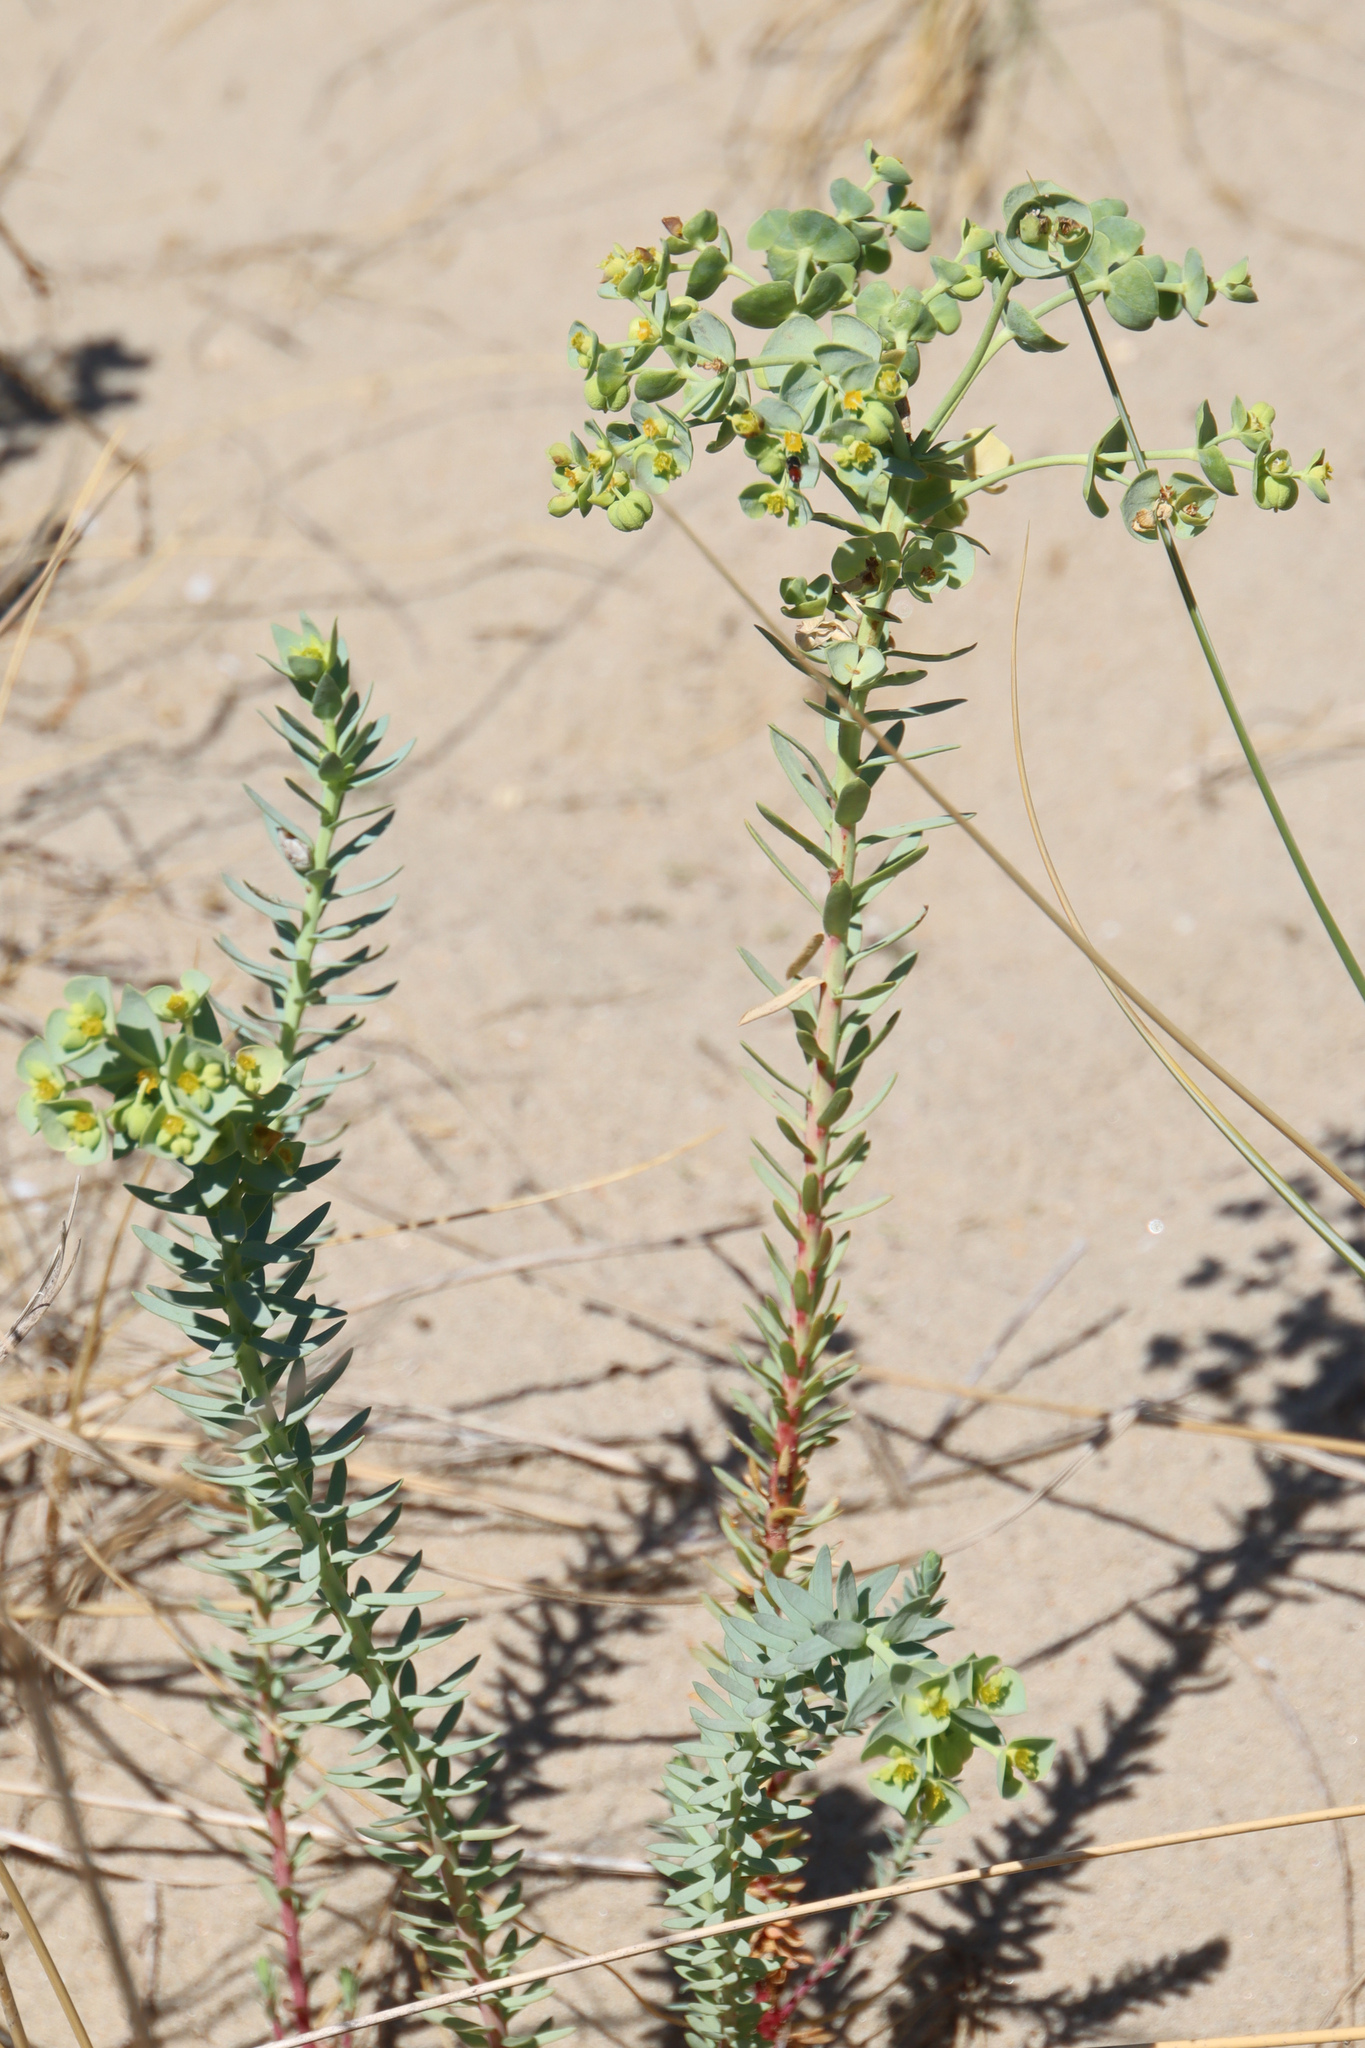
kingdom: Plantae
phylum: Tracheophyta
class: Magnoliopsida
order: Malpighiales
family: Euphorbiaceae
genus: Euphorbia
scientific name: Euphorbia paralias
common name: Sea spurge
